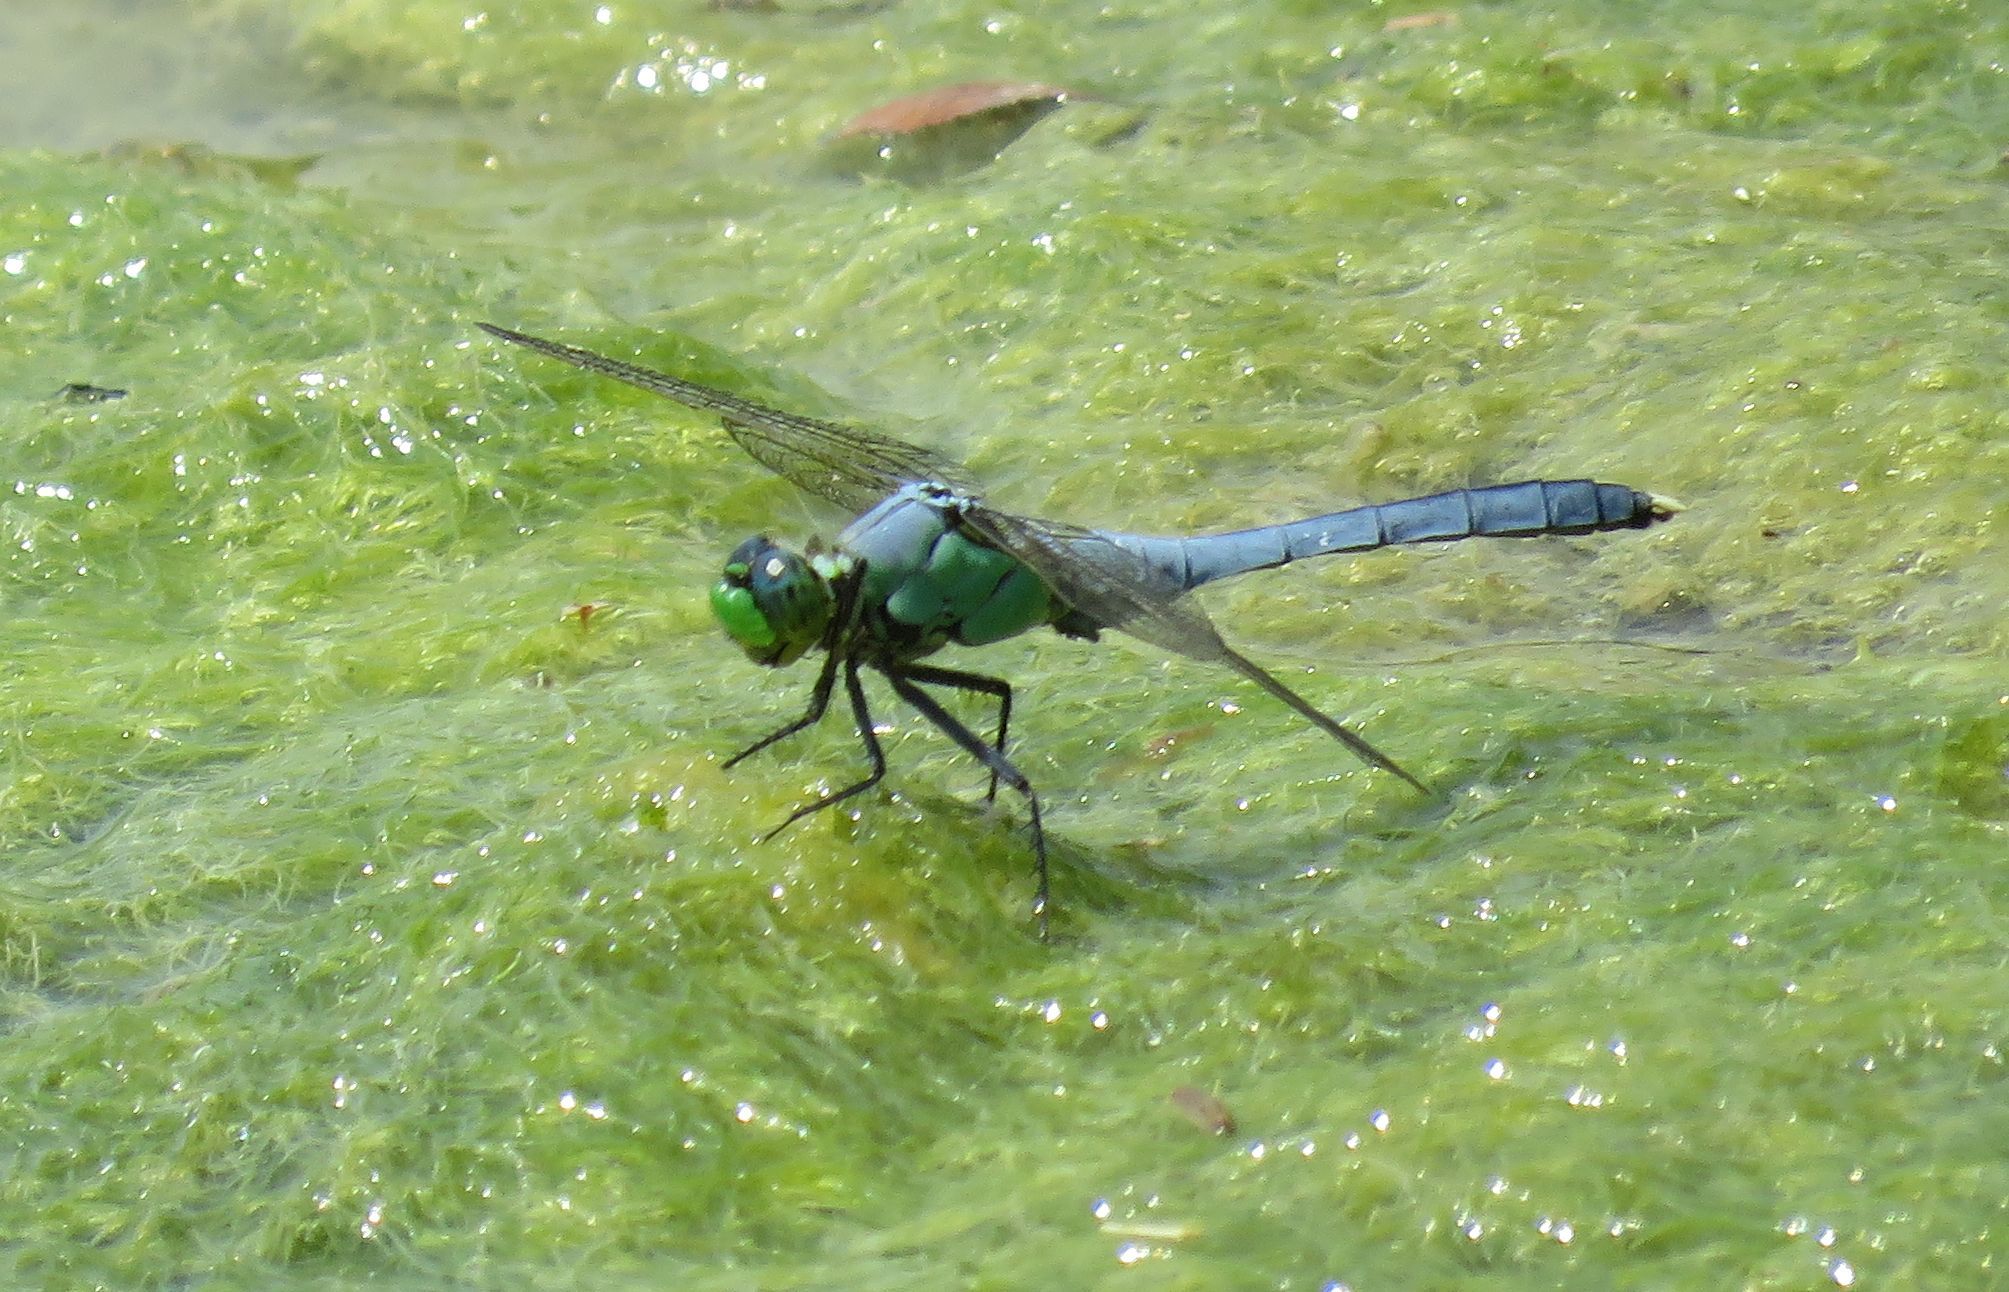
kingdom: Animalia
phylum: Arthropoda
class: Insecta
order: Odonata
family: Libellulidae
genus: Erythemis
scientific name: Erythemis simplicicollis
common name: Eastern pondhawk
